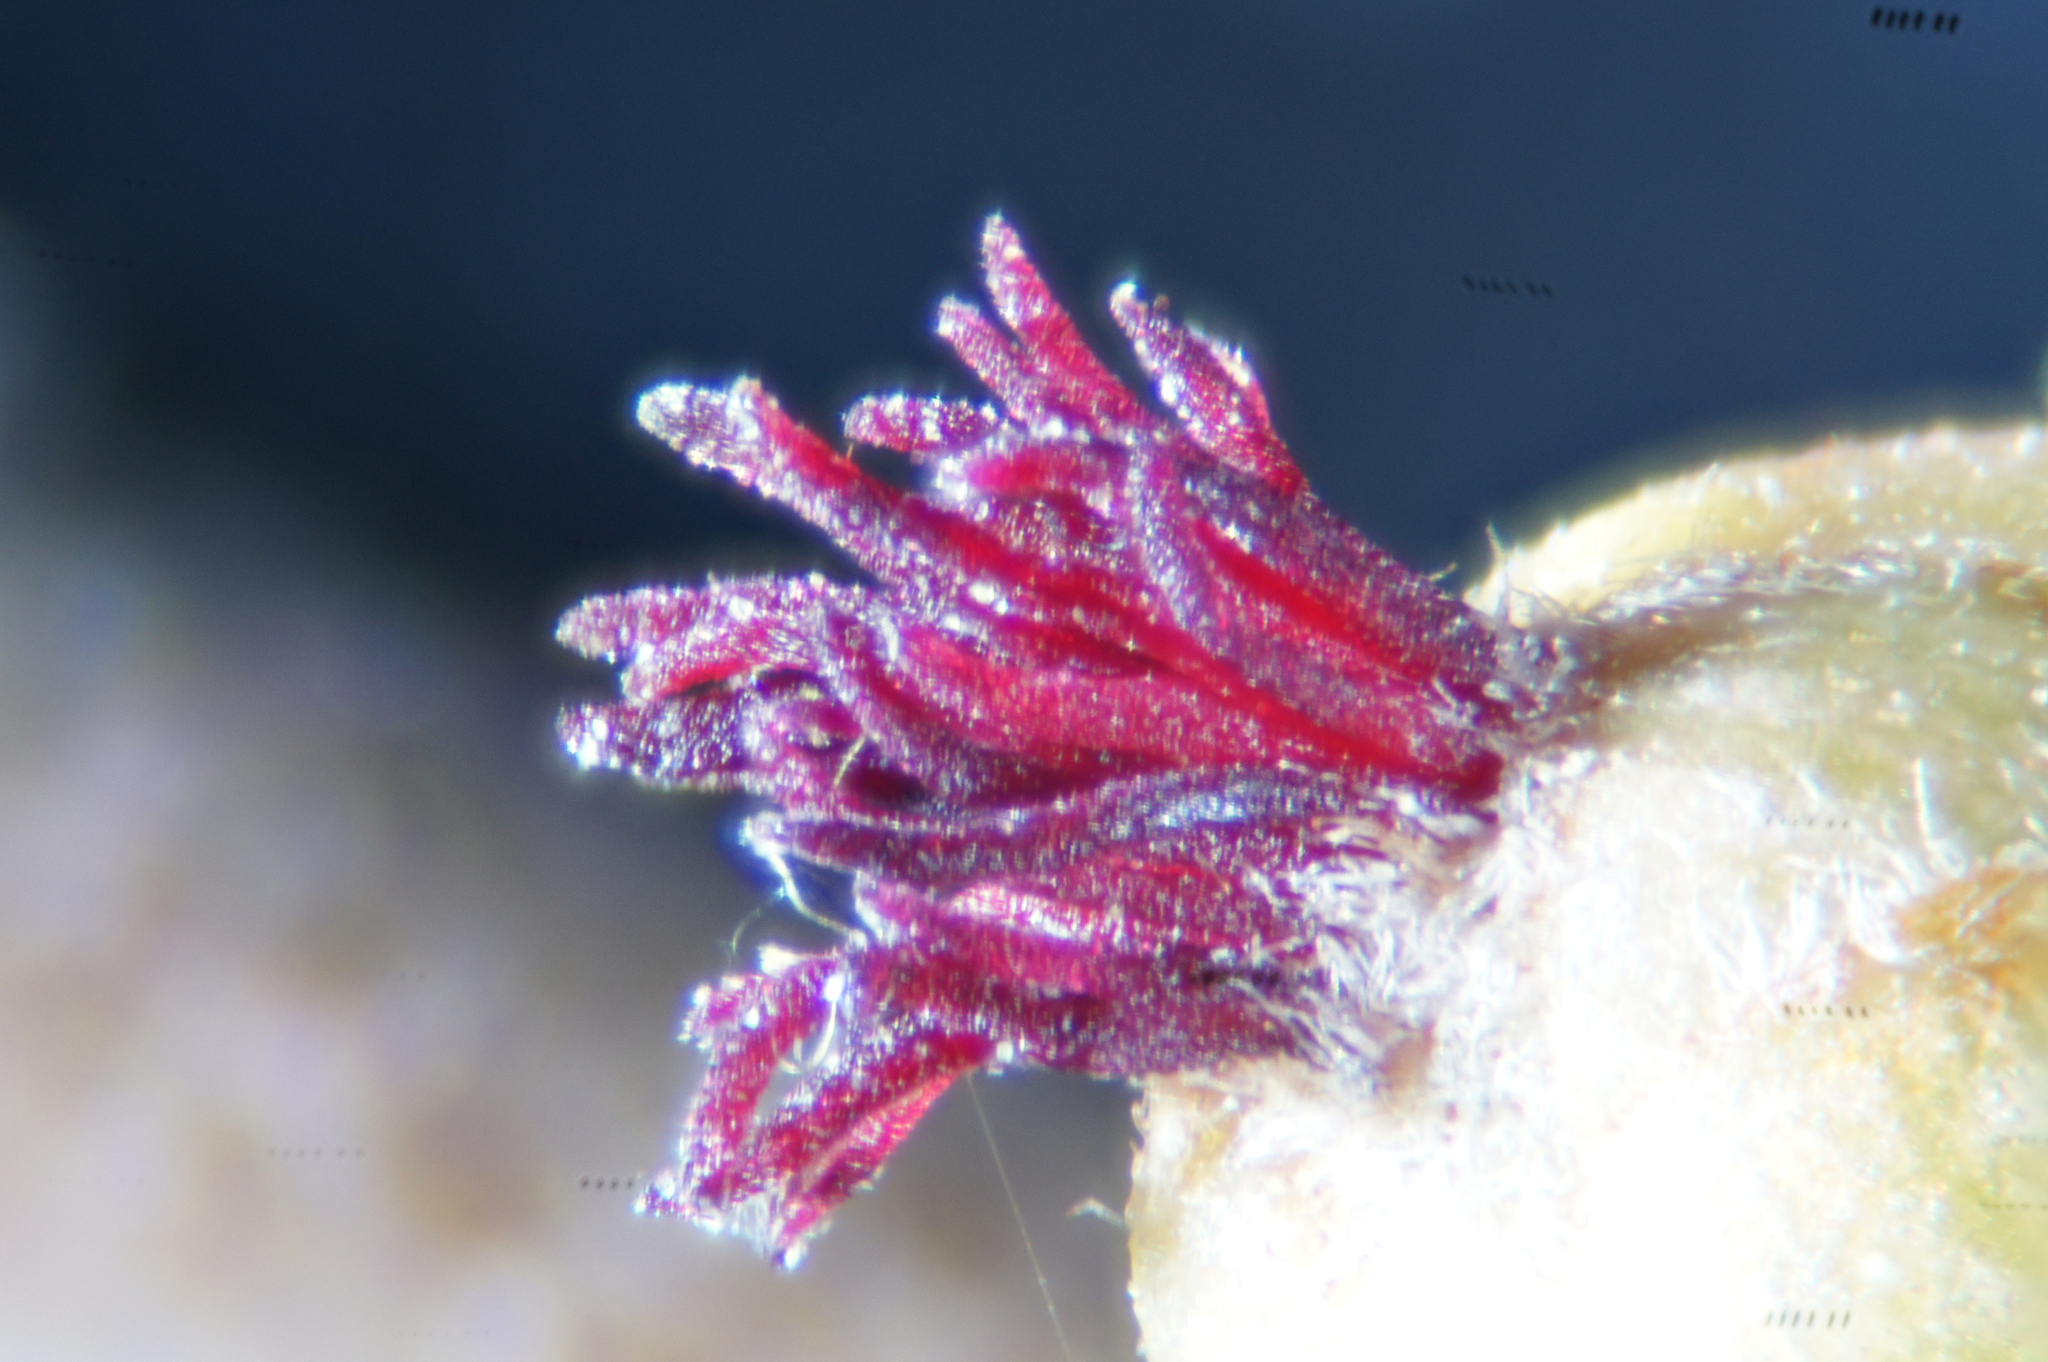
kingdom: Plantae
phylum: Tracheophyta
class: Magnoliopsida
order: Fagales
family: Betulaceae
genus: Corylus
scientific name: Corylus avellana
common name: European hazel
